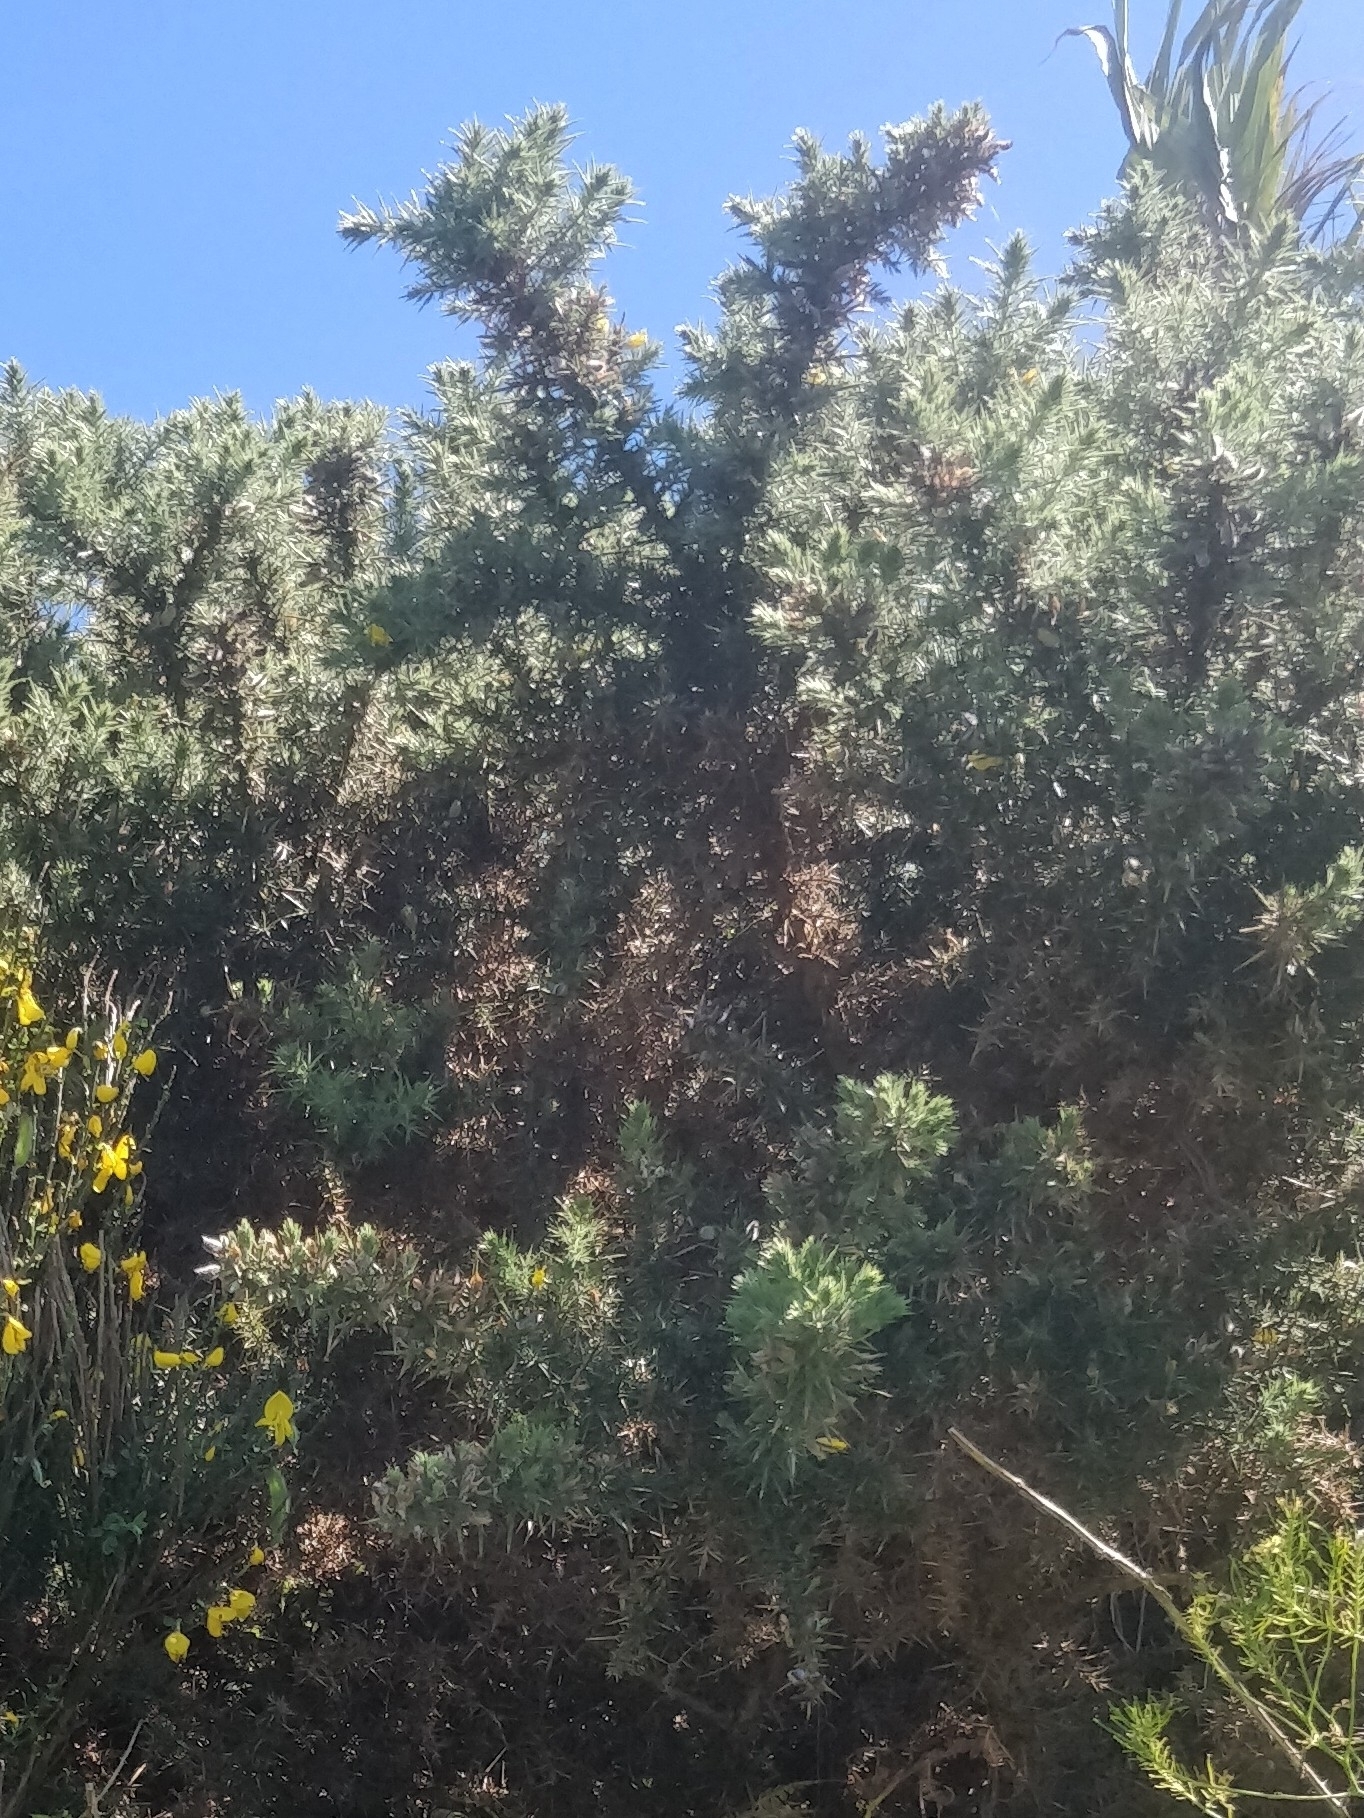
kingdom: Plantae
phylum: Tracheophyta
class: Magnoliopsida
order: Fabales
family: Fabaceae
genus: Ulex
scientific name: Ulex europaeus
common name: Common gorse
